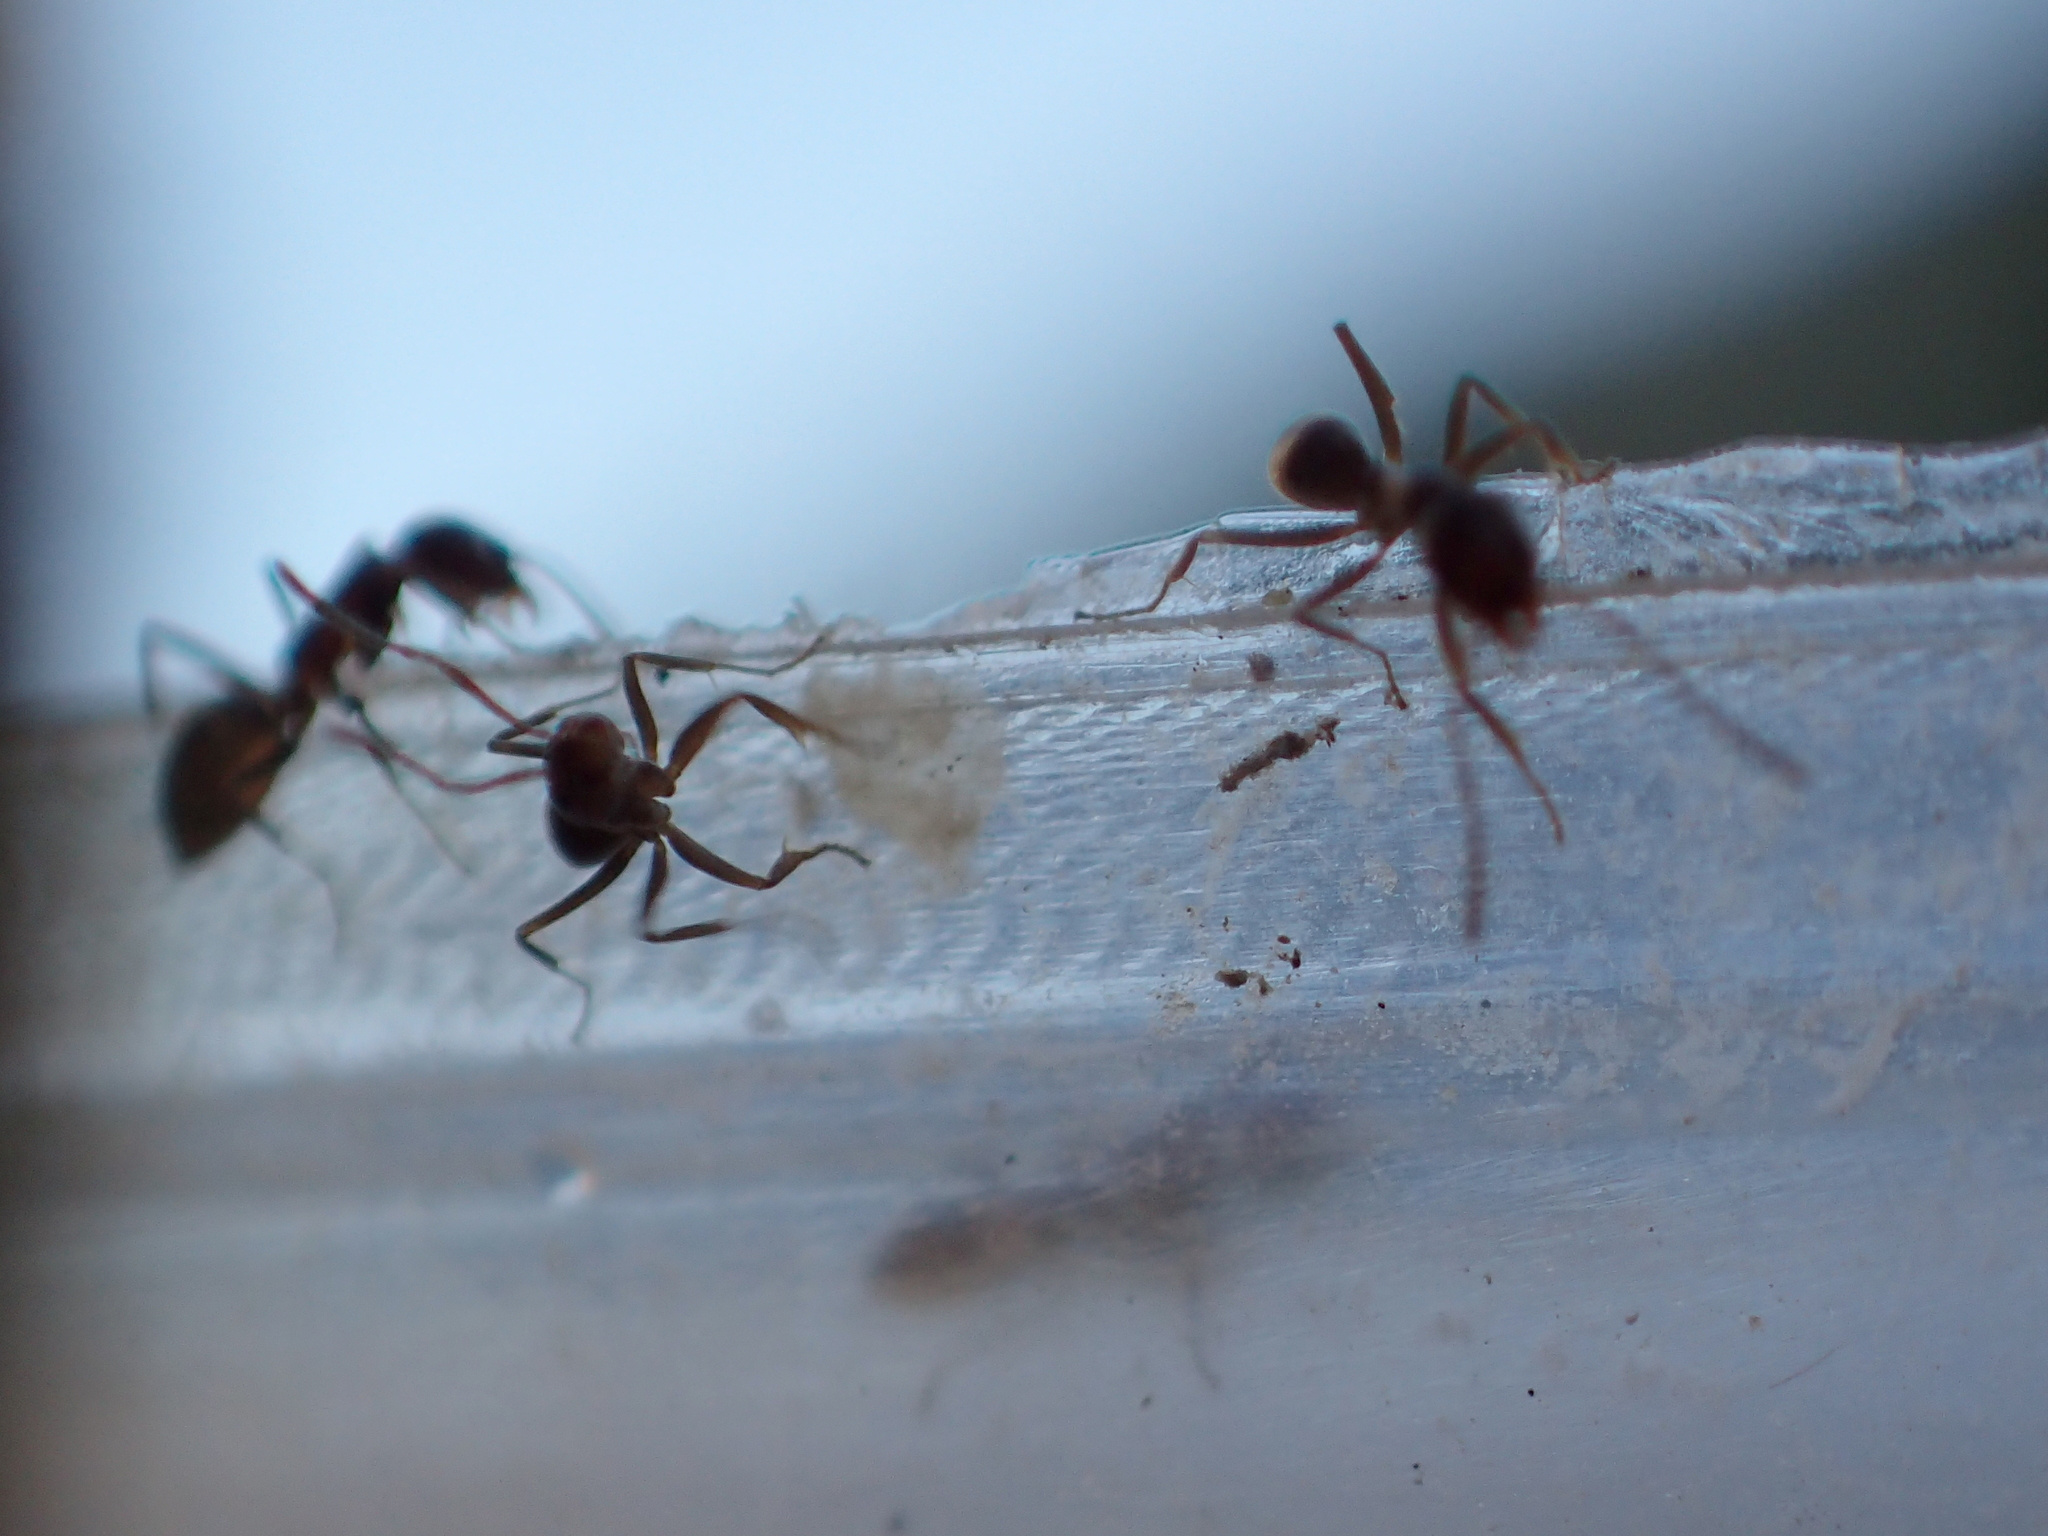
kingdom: Animalia
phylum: Arthropoda
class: Insecta
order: Hymenoptera
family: Formicidae
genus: Linepithema
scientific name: Linepithema humile
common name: Argentine ant
